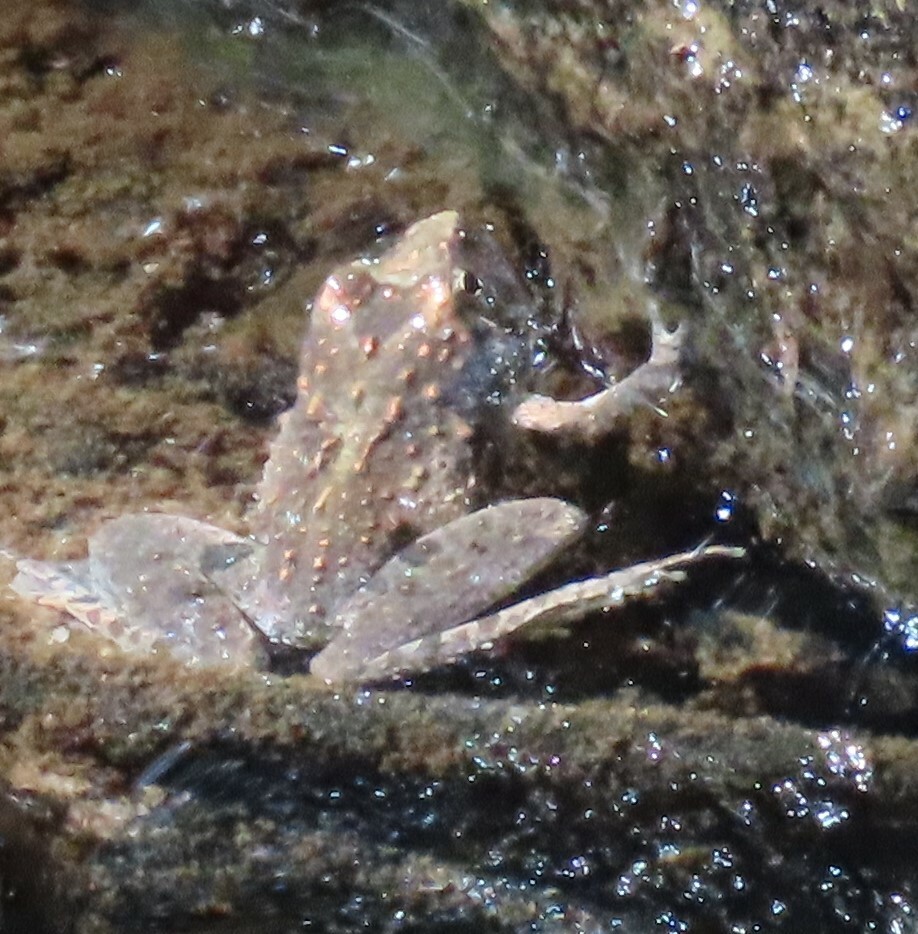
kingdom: Animalia
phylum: Chordata
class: Amphibia
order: Anura
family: Hylidae
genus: Acris
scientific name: Acris crepitans
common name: Northern cricket frog
